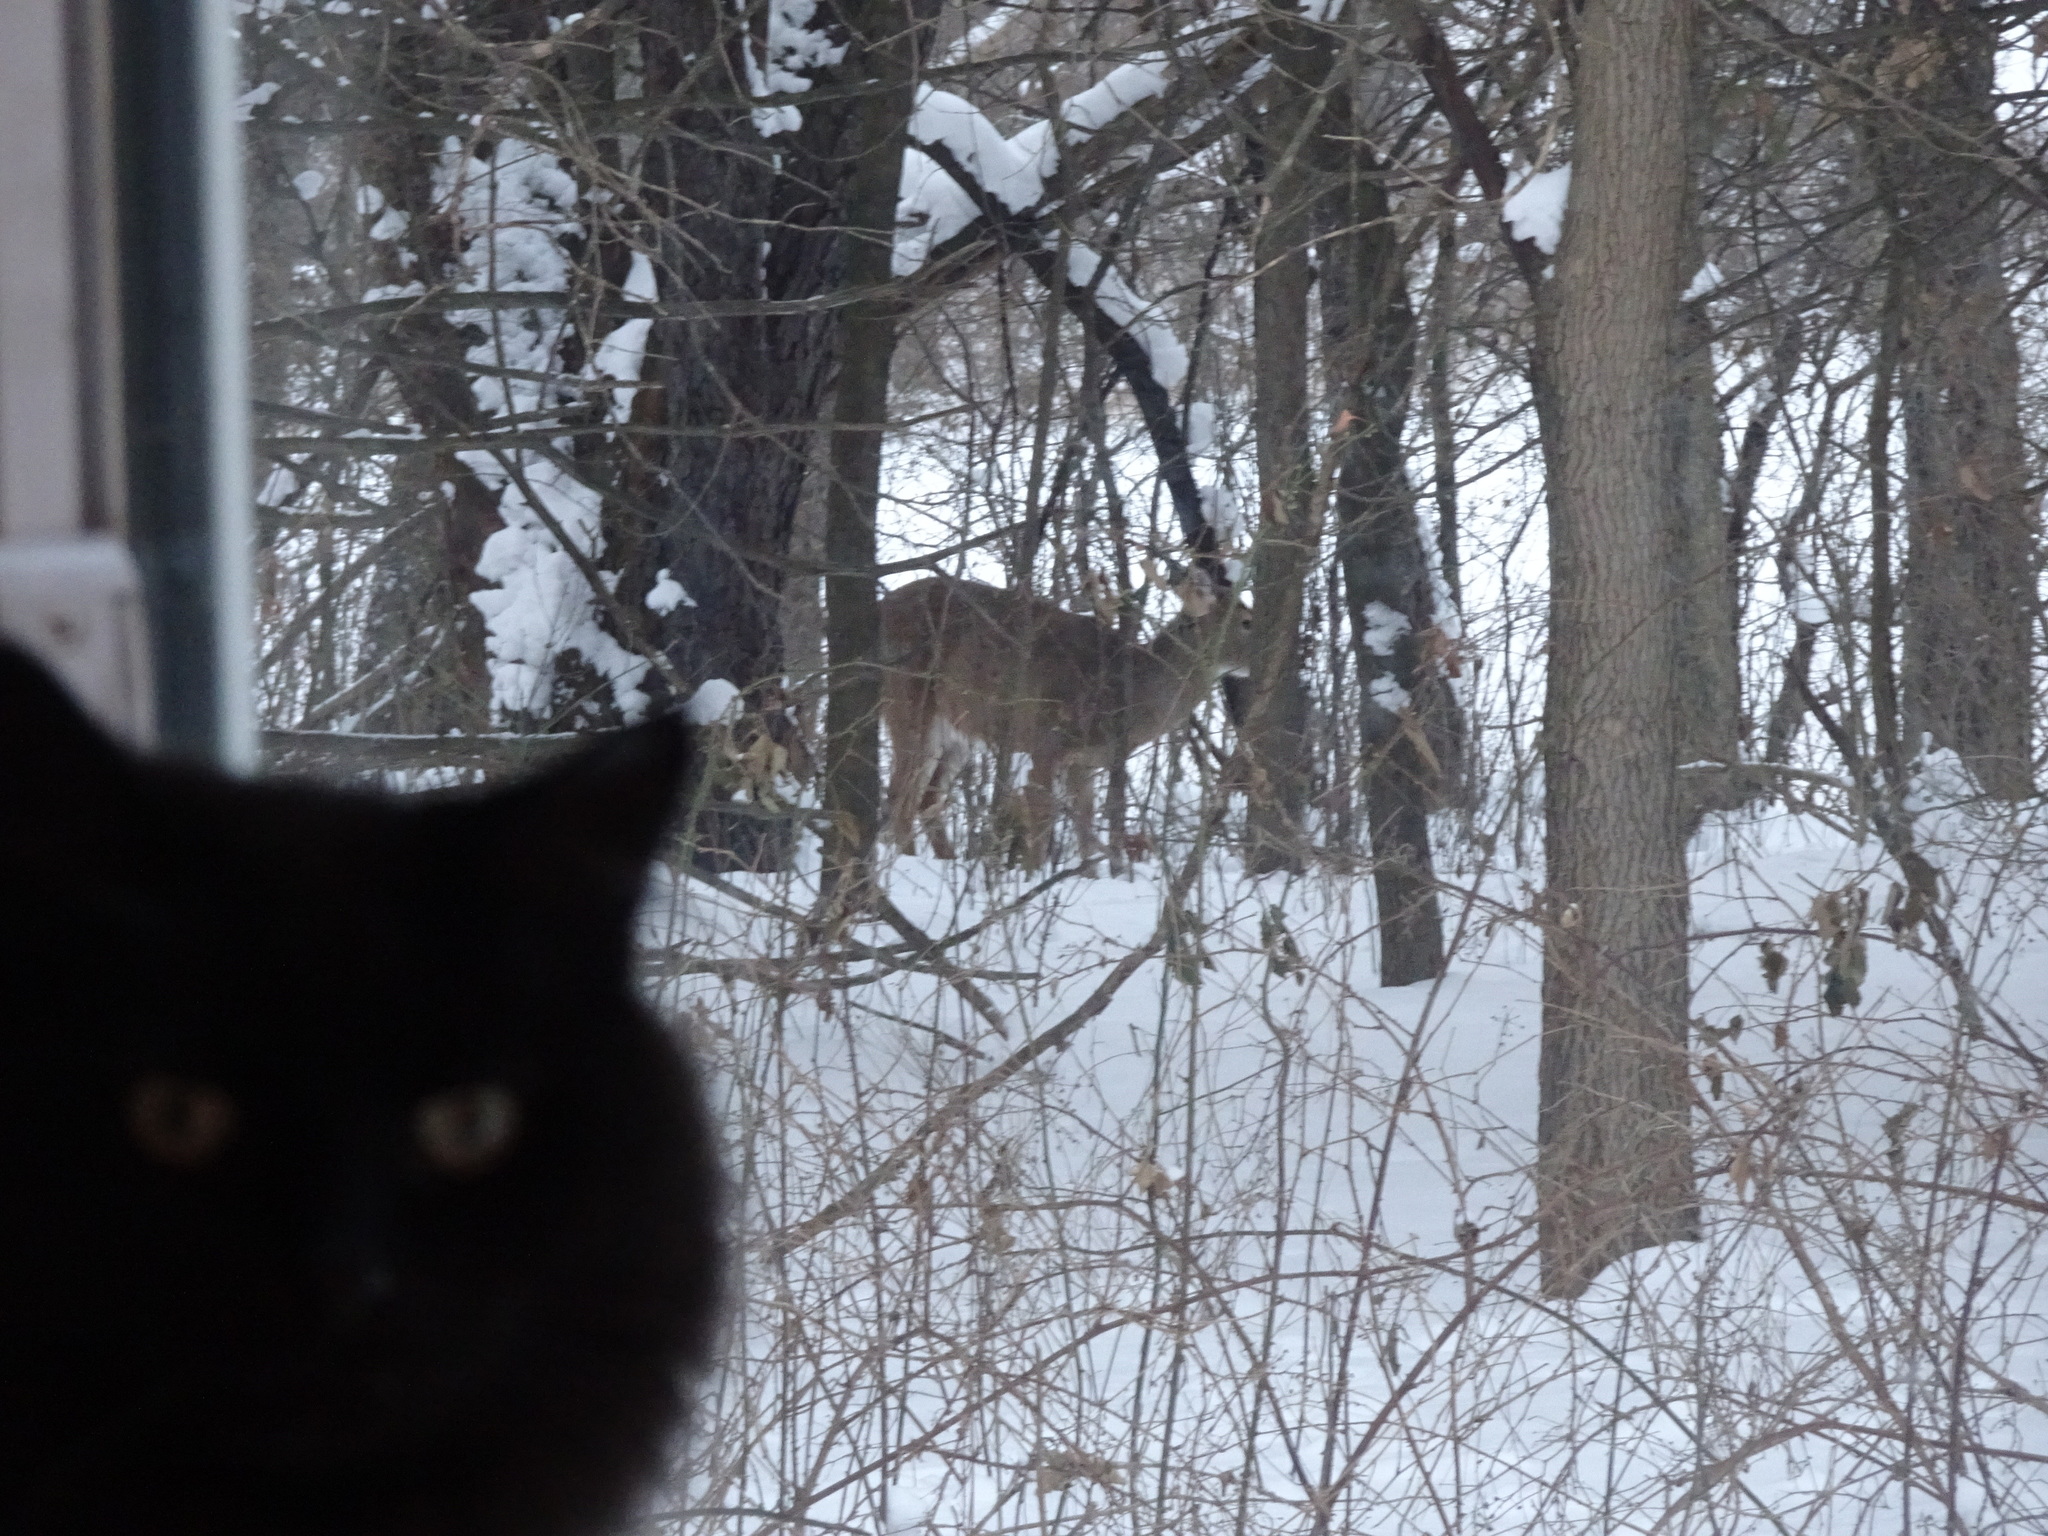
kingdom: Animalia
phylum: Chordata
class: Mammalia
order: Artiodactyla
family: Cervidae
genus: Odocoileus
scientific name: Odocoileus virginianus
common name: White-tailed deer
